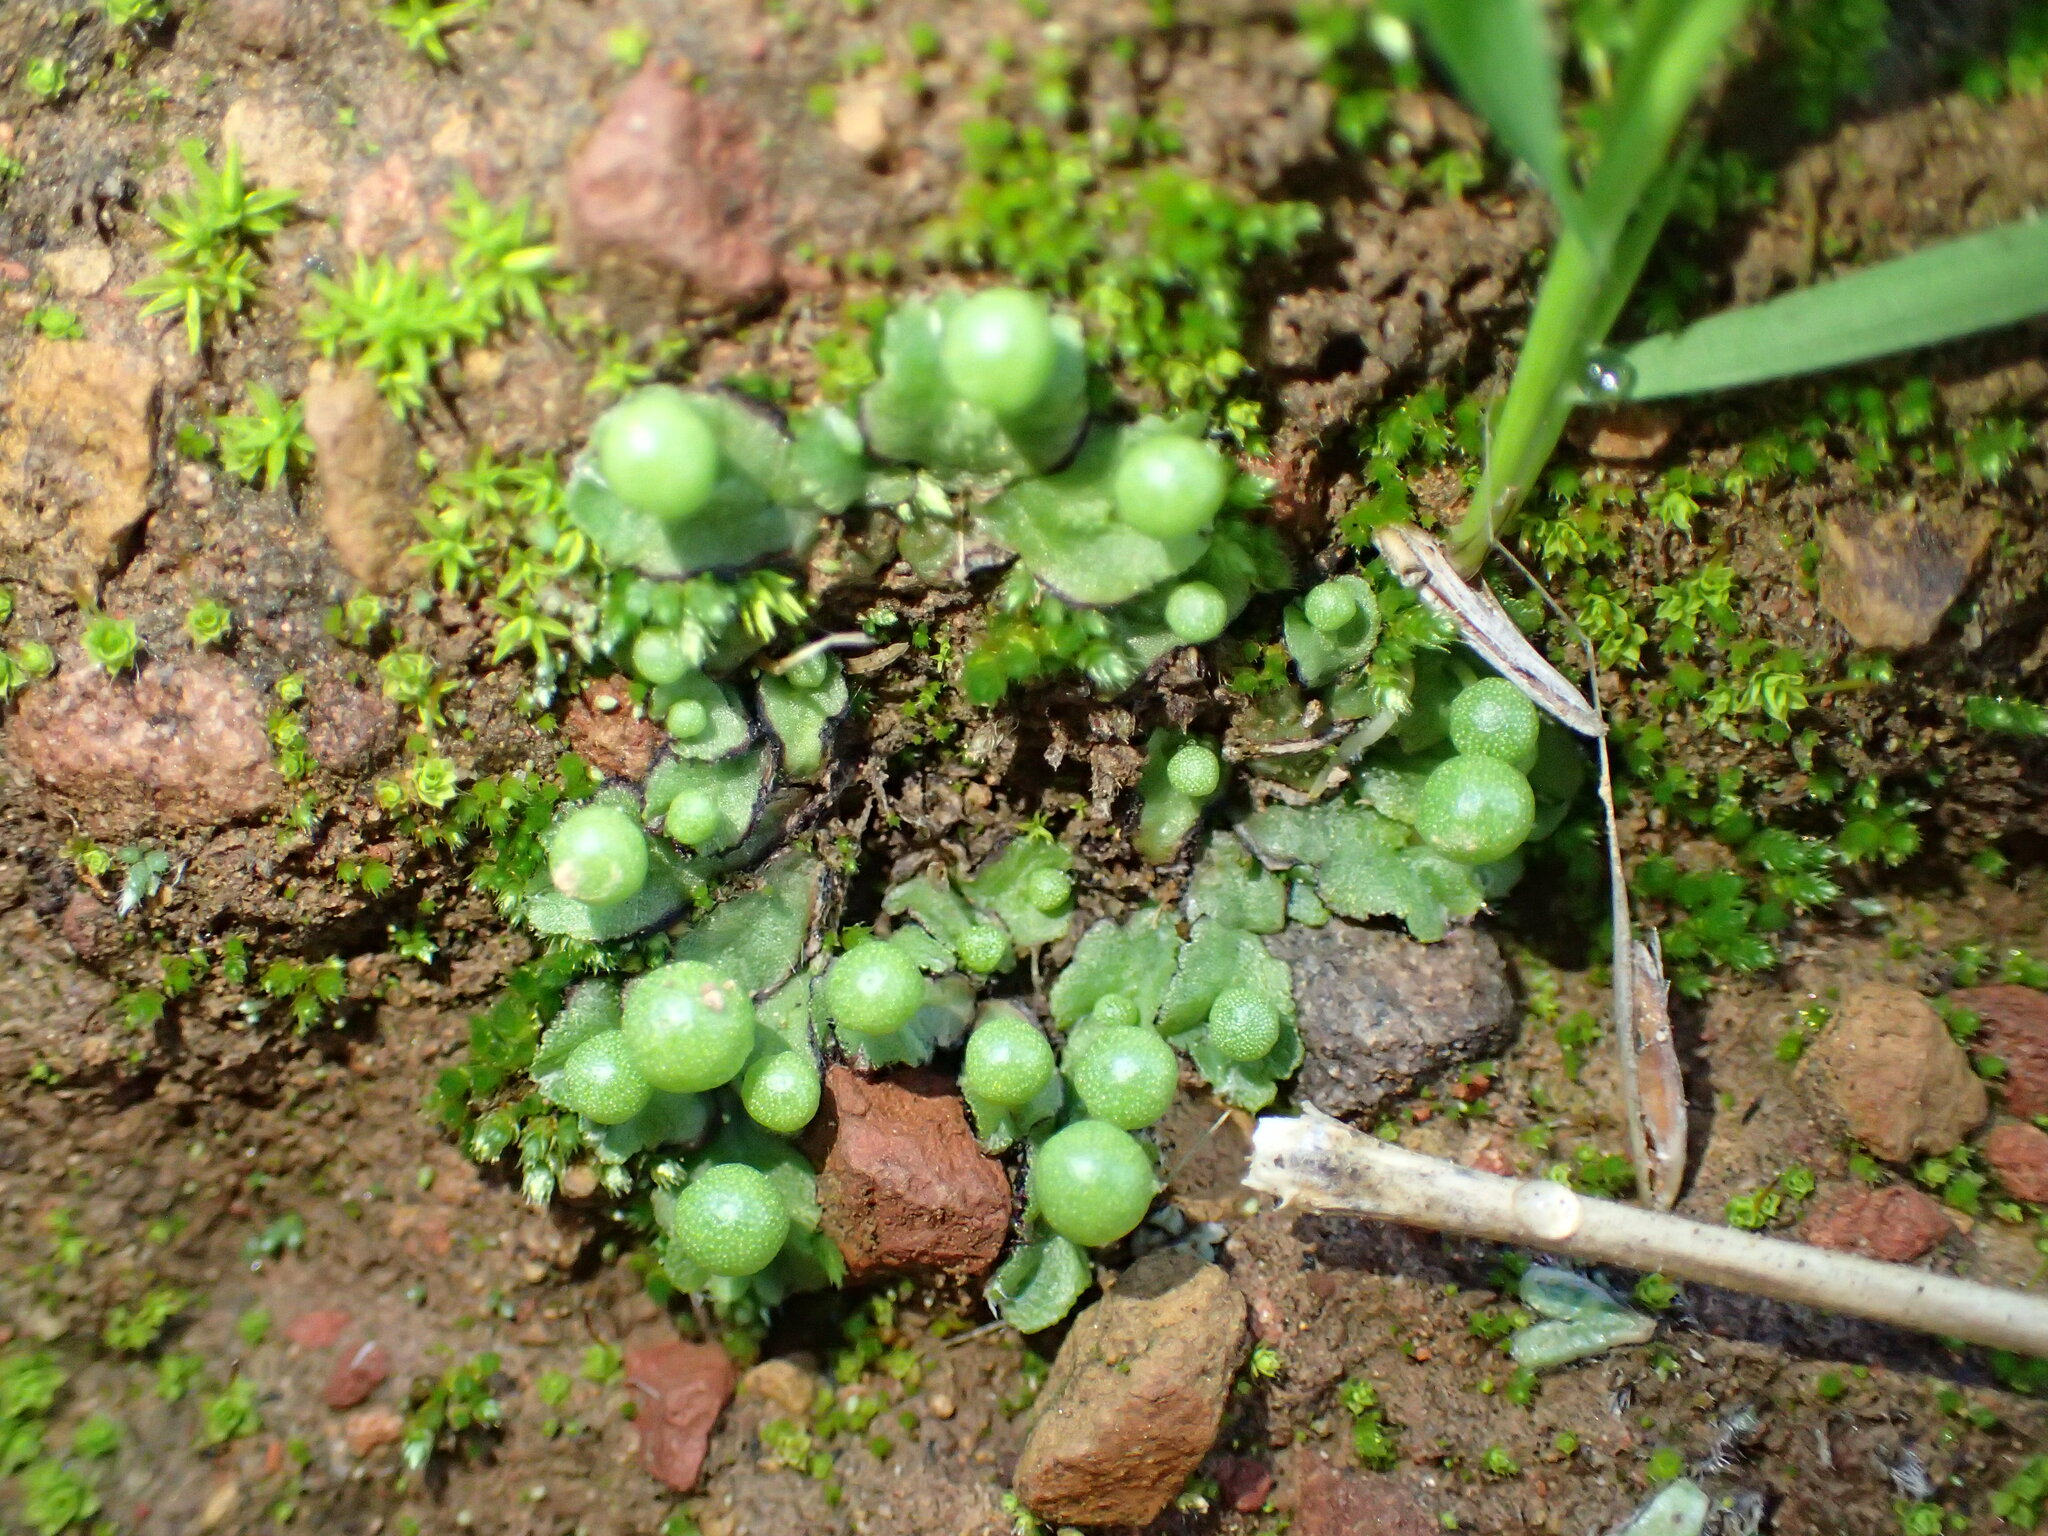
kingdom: Plantae
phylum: Marchantiophyta
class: Marchantiopsida
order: Marchantiales
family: Aytoniaceae
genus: Asterella
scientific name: Asterella palmeri
